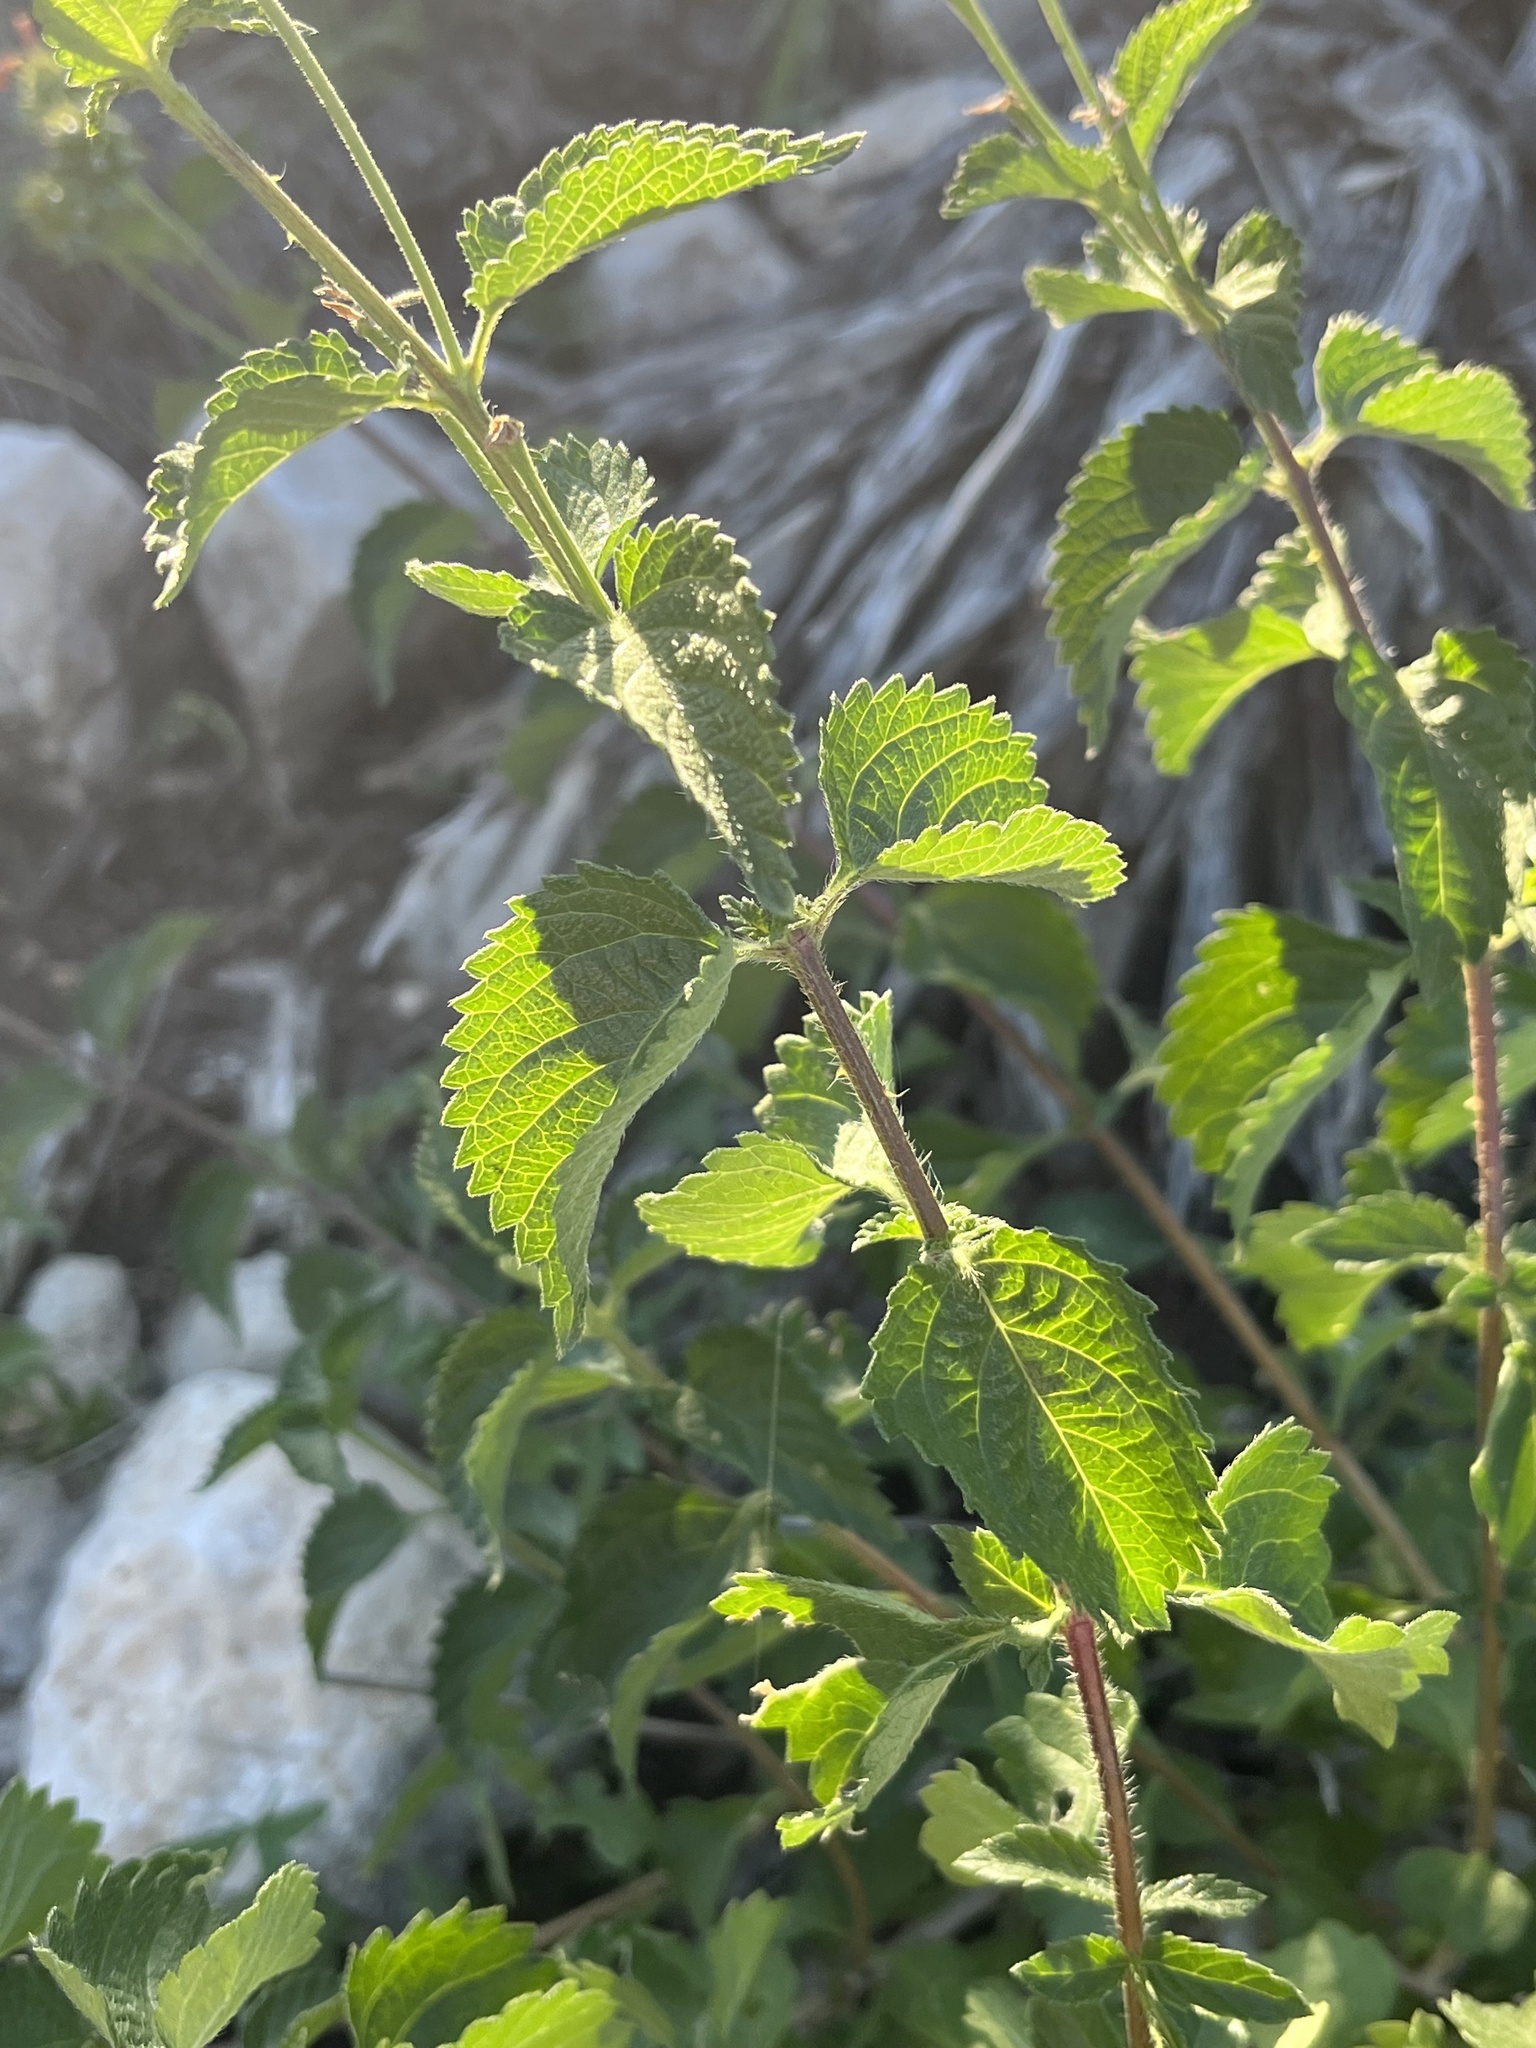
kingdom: Plantae
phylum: Tracheophyta
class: Magnoliopsida
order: Lamiales
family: Verbenaceae
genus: Lantana
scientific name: Lantana urticoides
